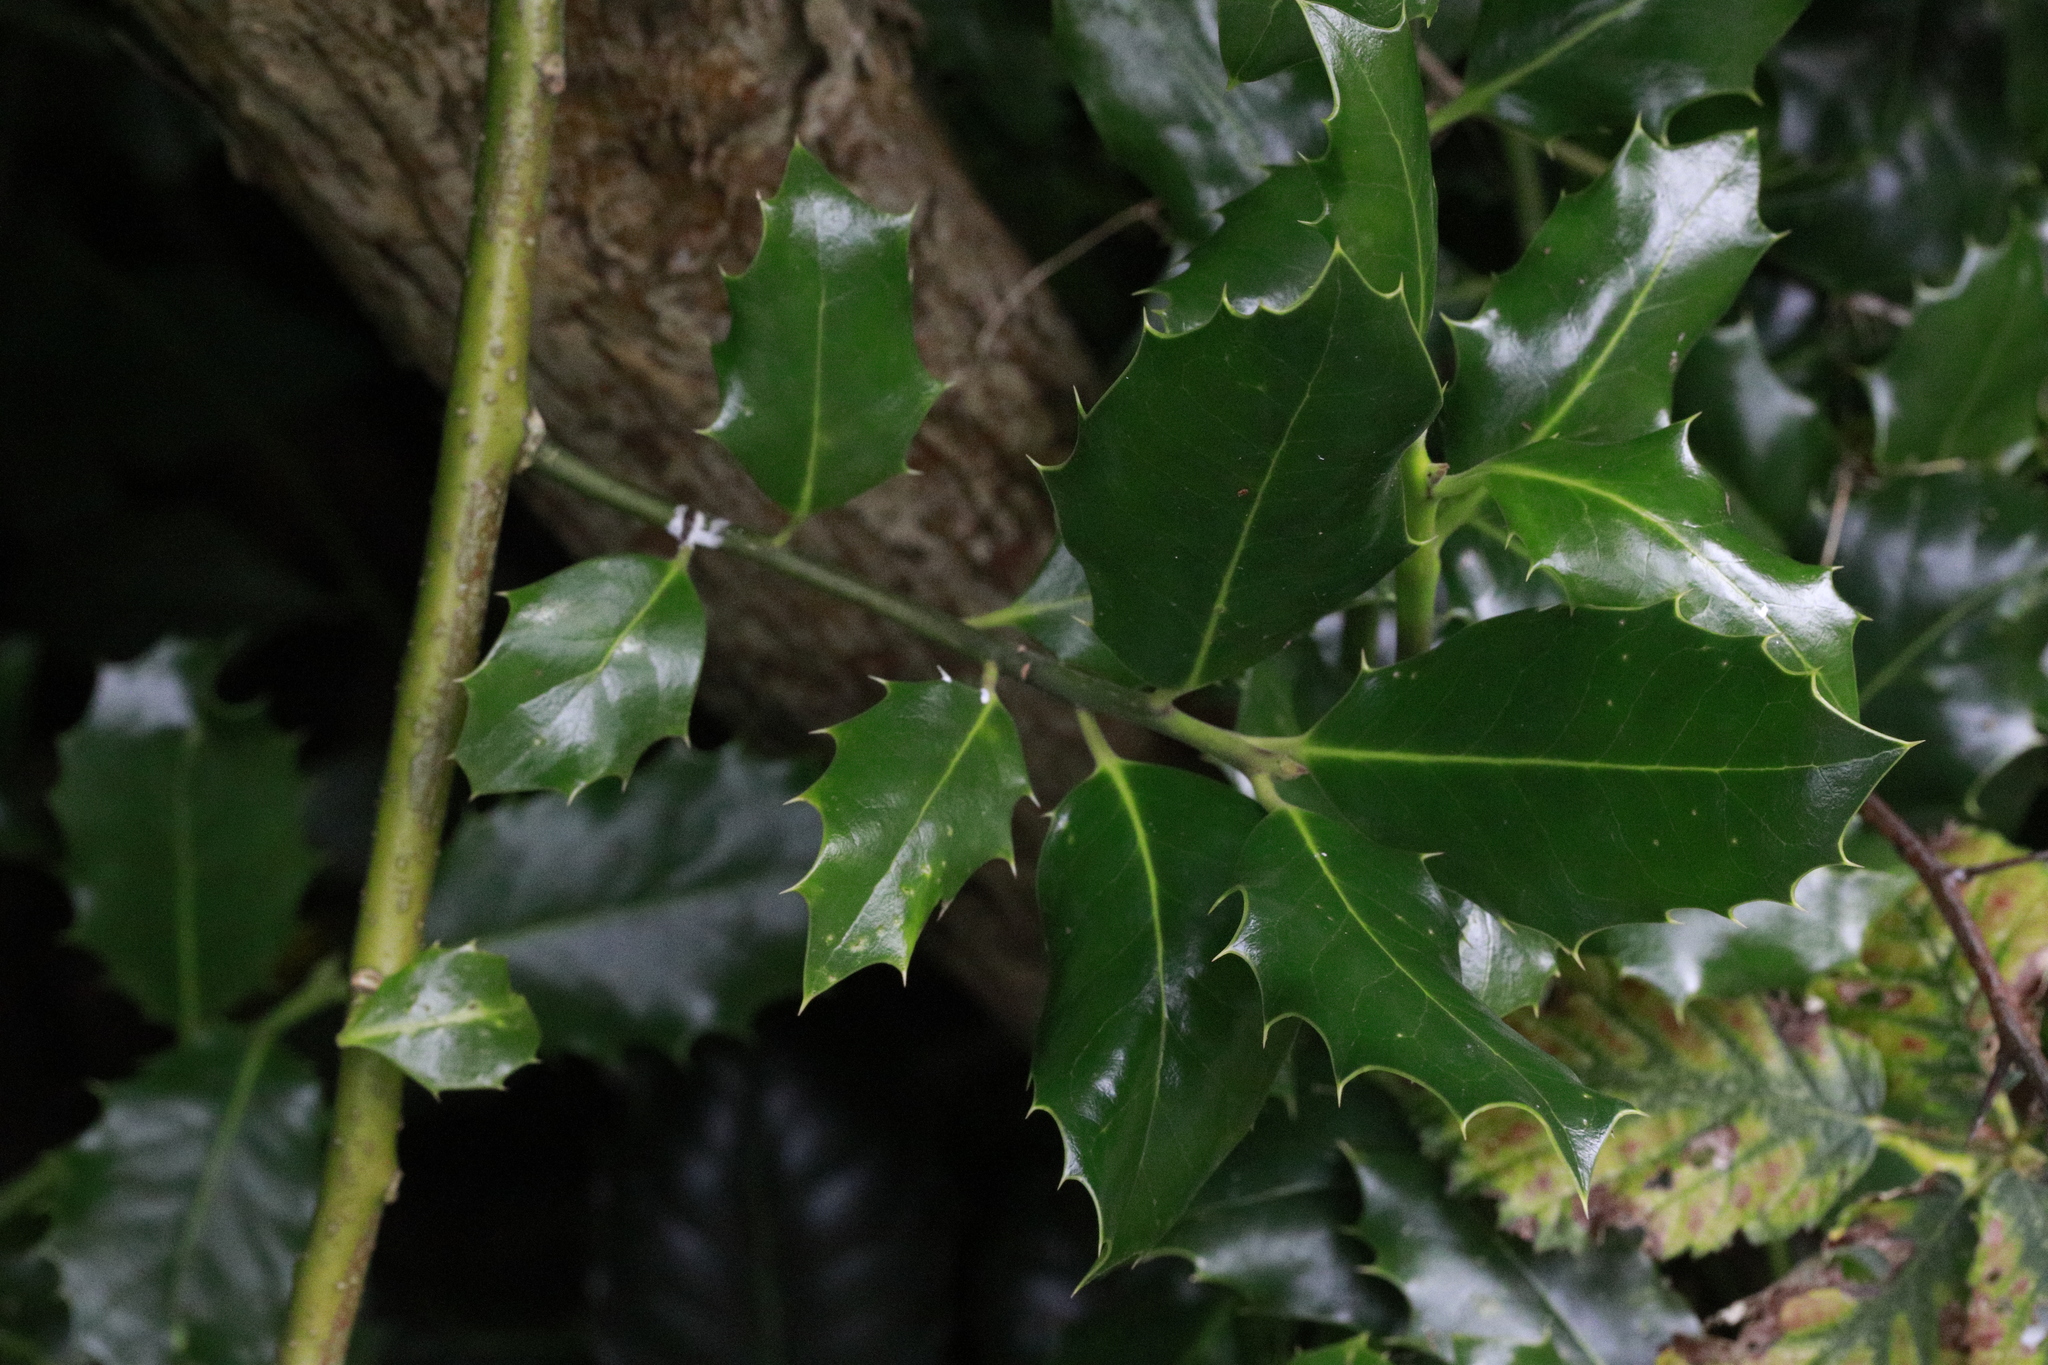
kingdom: Plantae
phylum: Tracheophyta
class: Magnoliopsida
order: Aquifoliales
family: Aquifoliaceae
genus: Ilex
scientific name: Ilex aquifolium
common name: English holly
